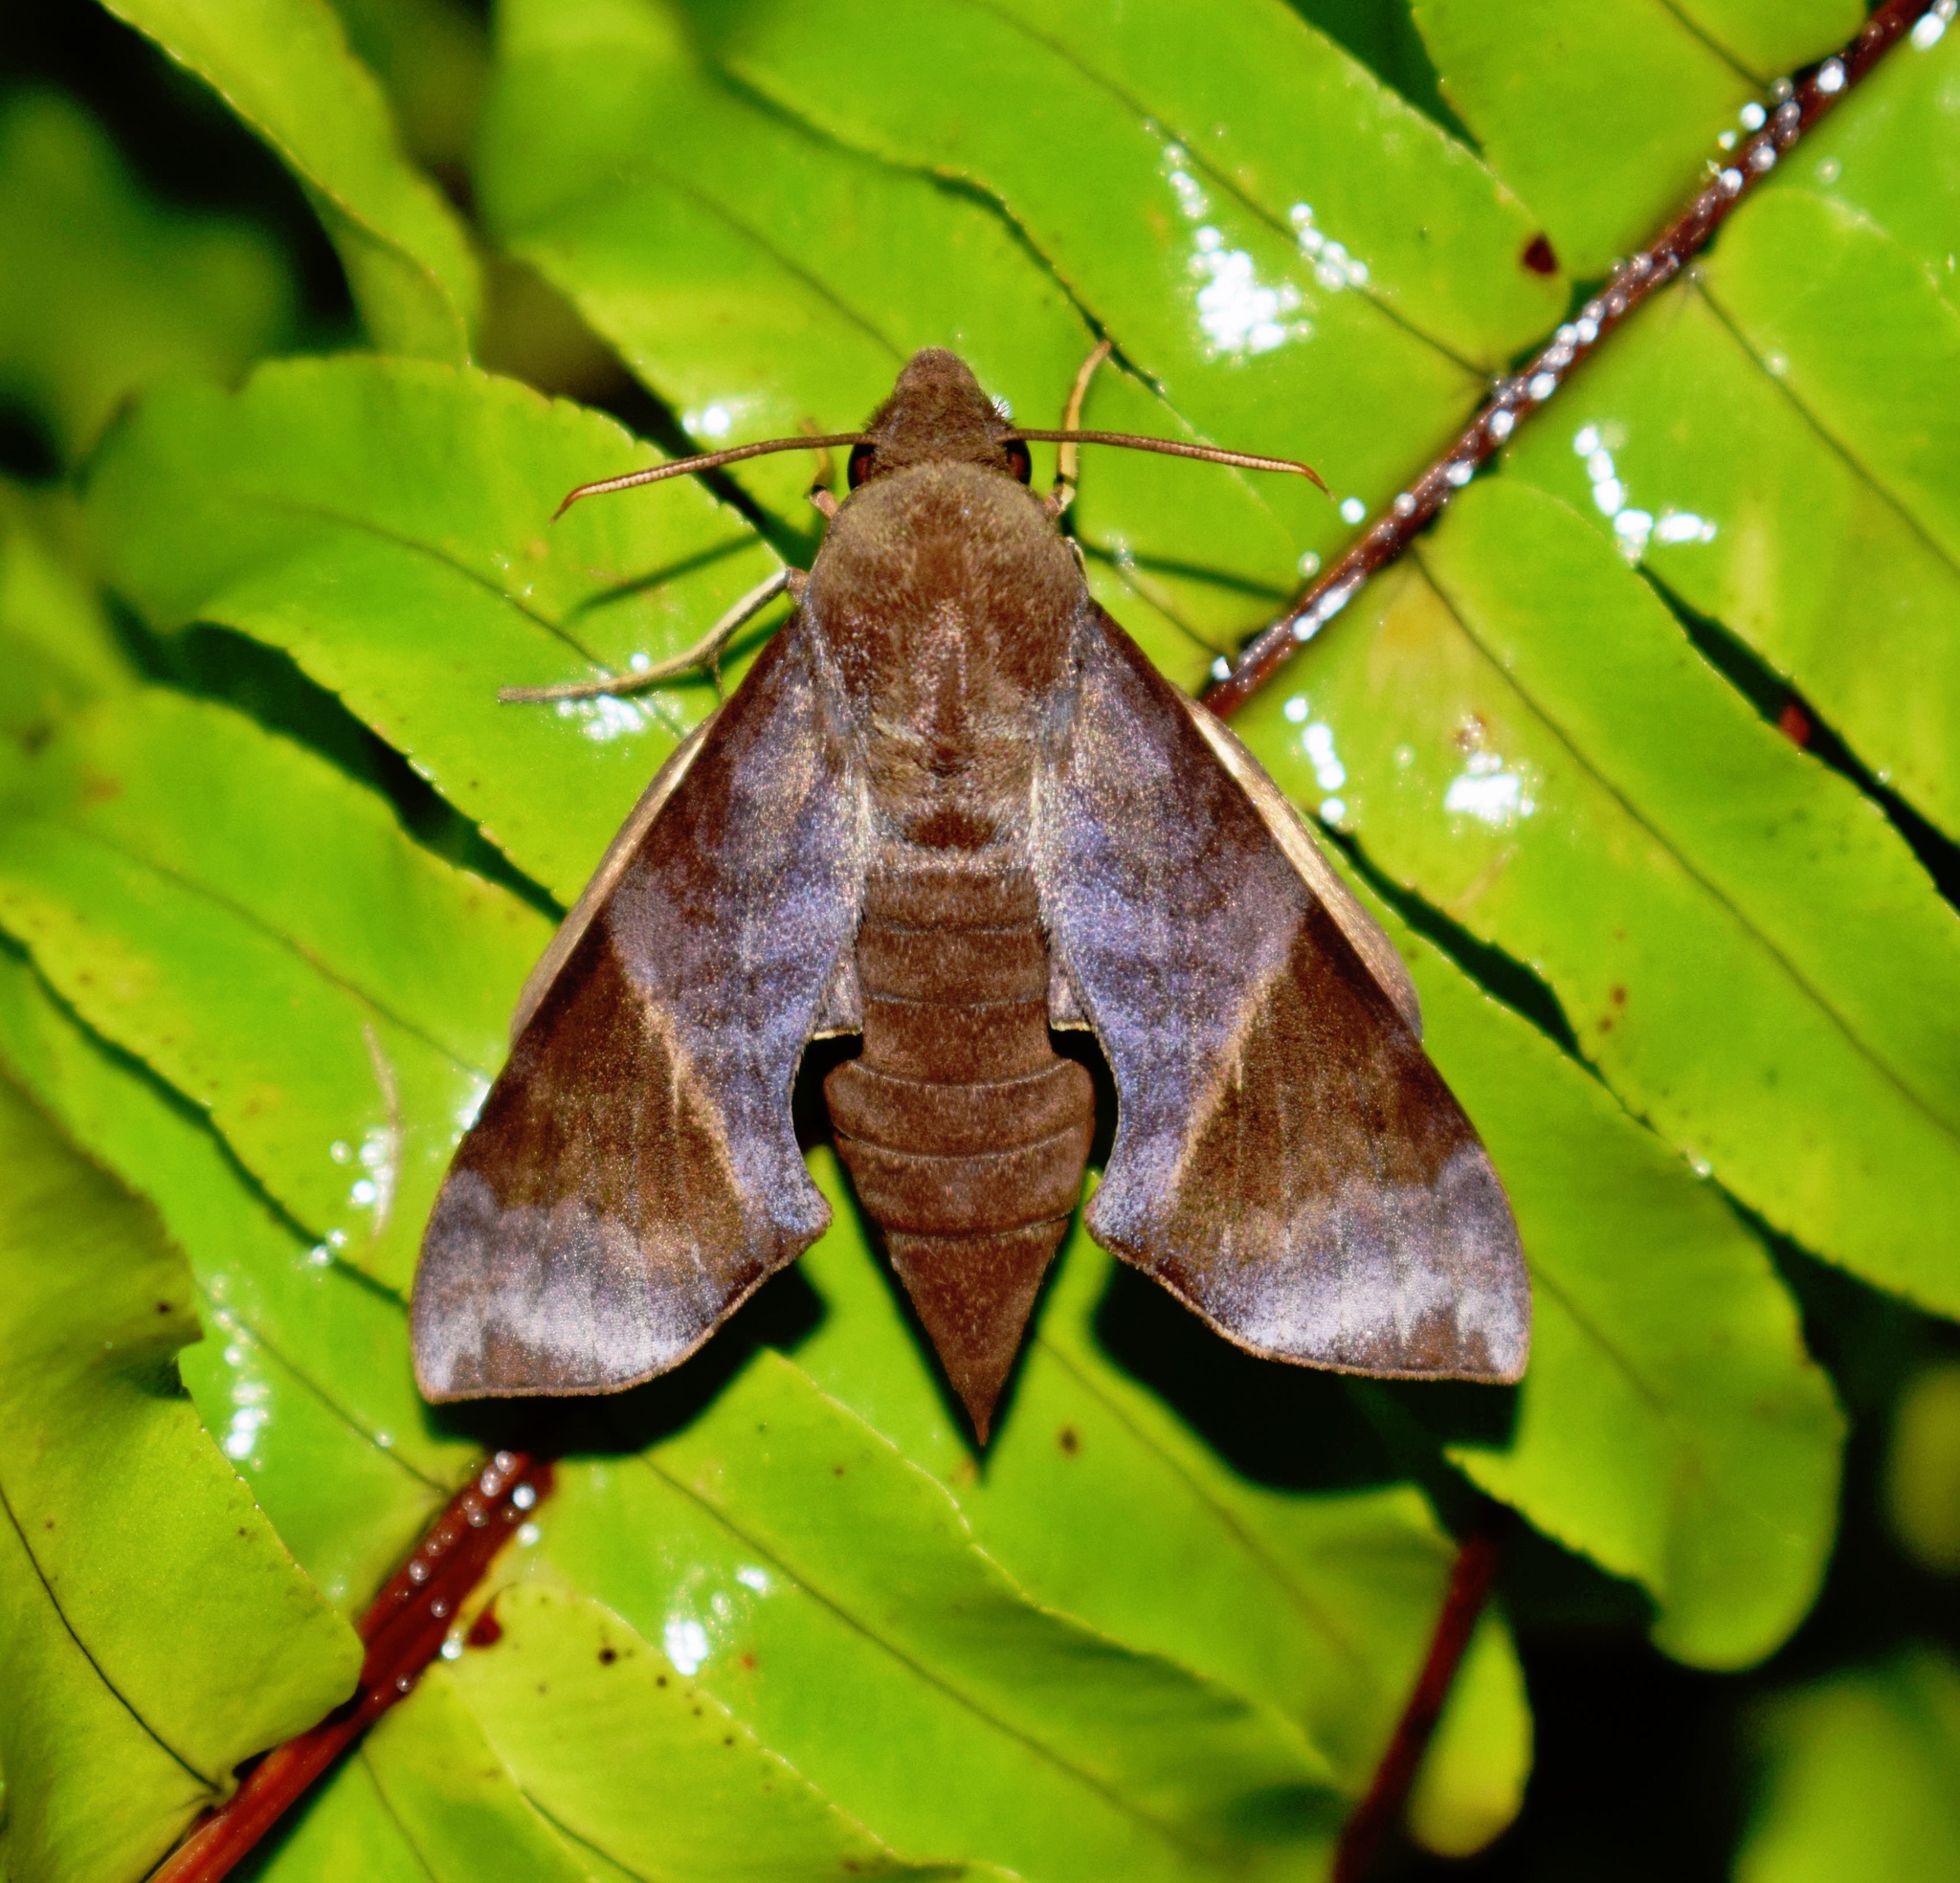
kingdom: Animalia
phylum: Arthropoda
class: Insecta
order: Lepidoptera
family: Sphingidae
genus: Temnora
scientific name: Temnora marginata
